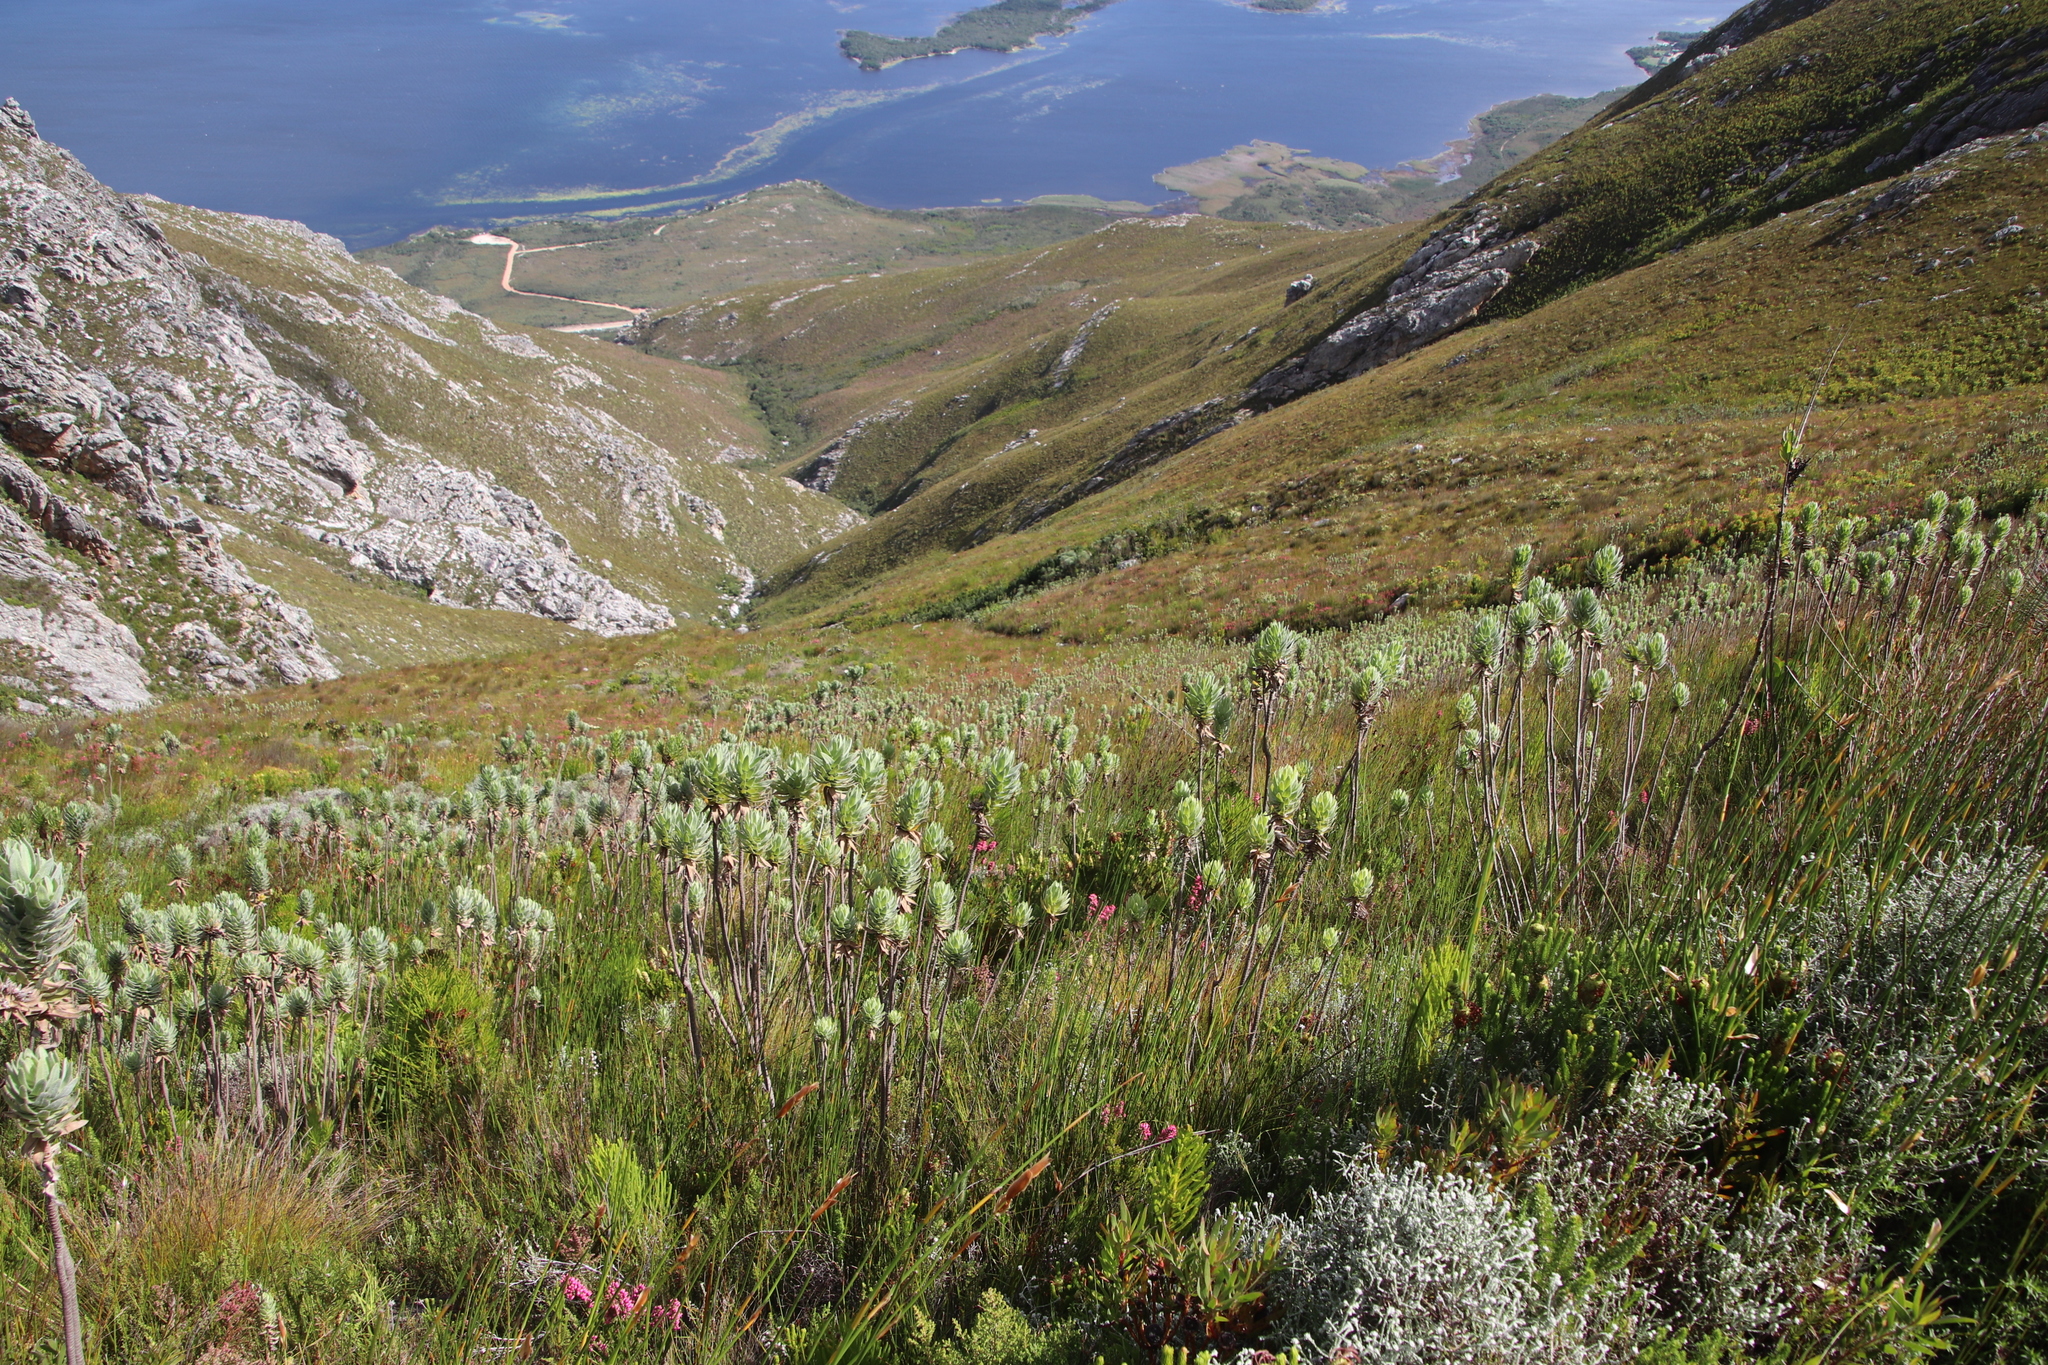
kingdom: Plantae
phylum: Tracheophyta
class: Magnoliopsida
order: Ericales
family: Ericaceae
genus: Erica
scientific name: Erica tenella
